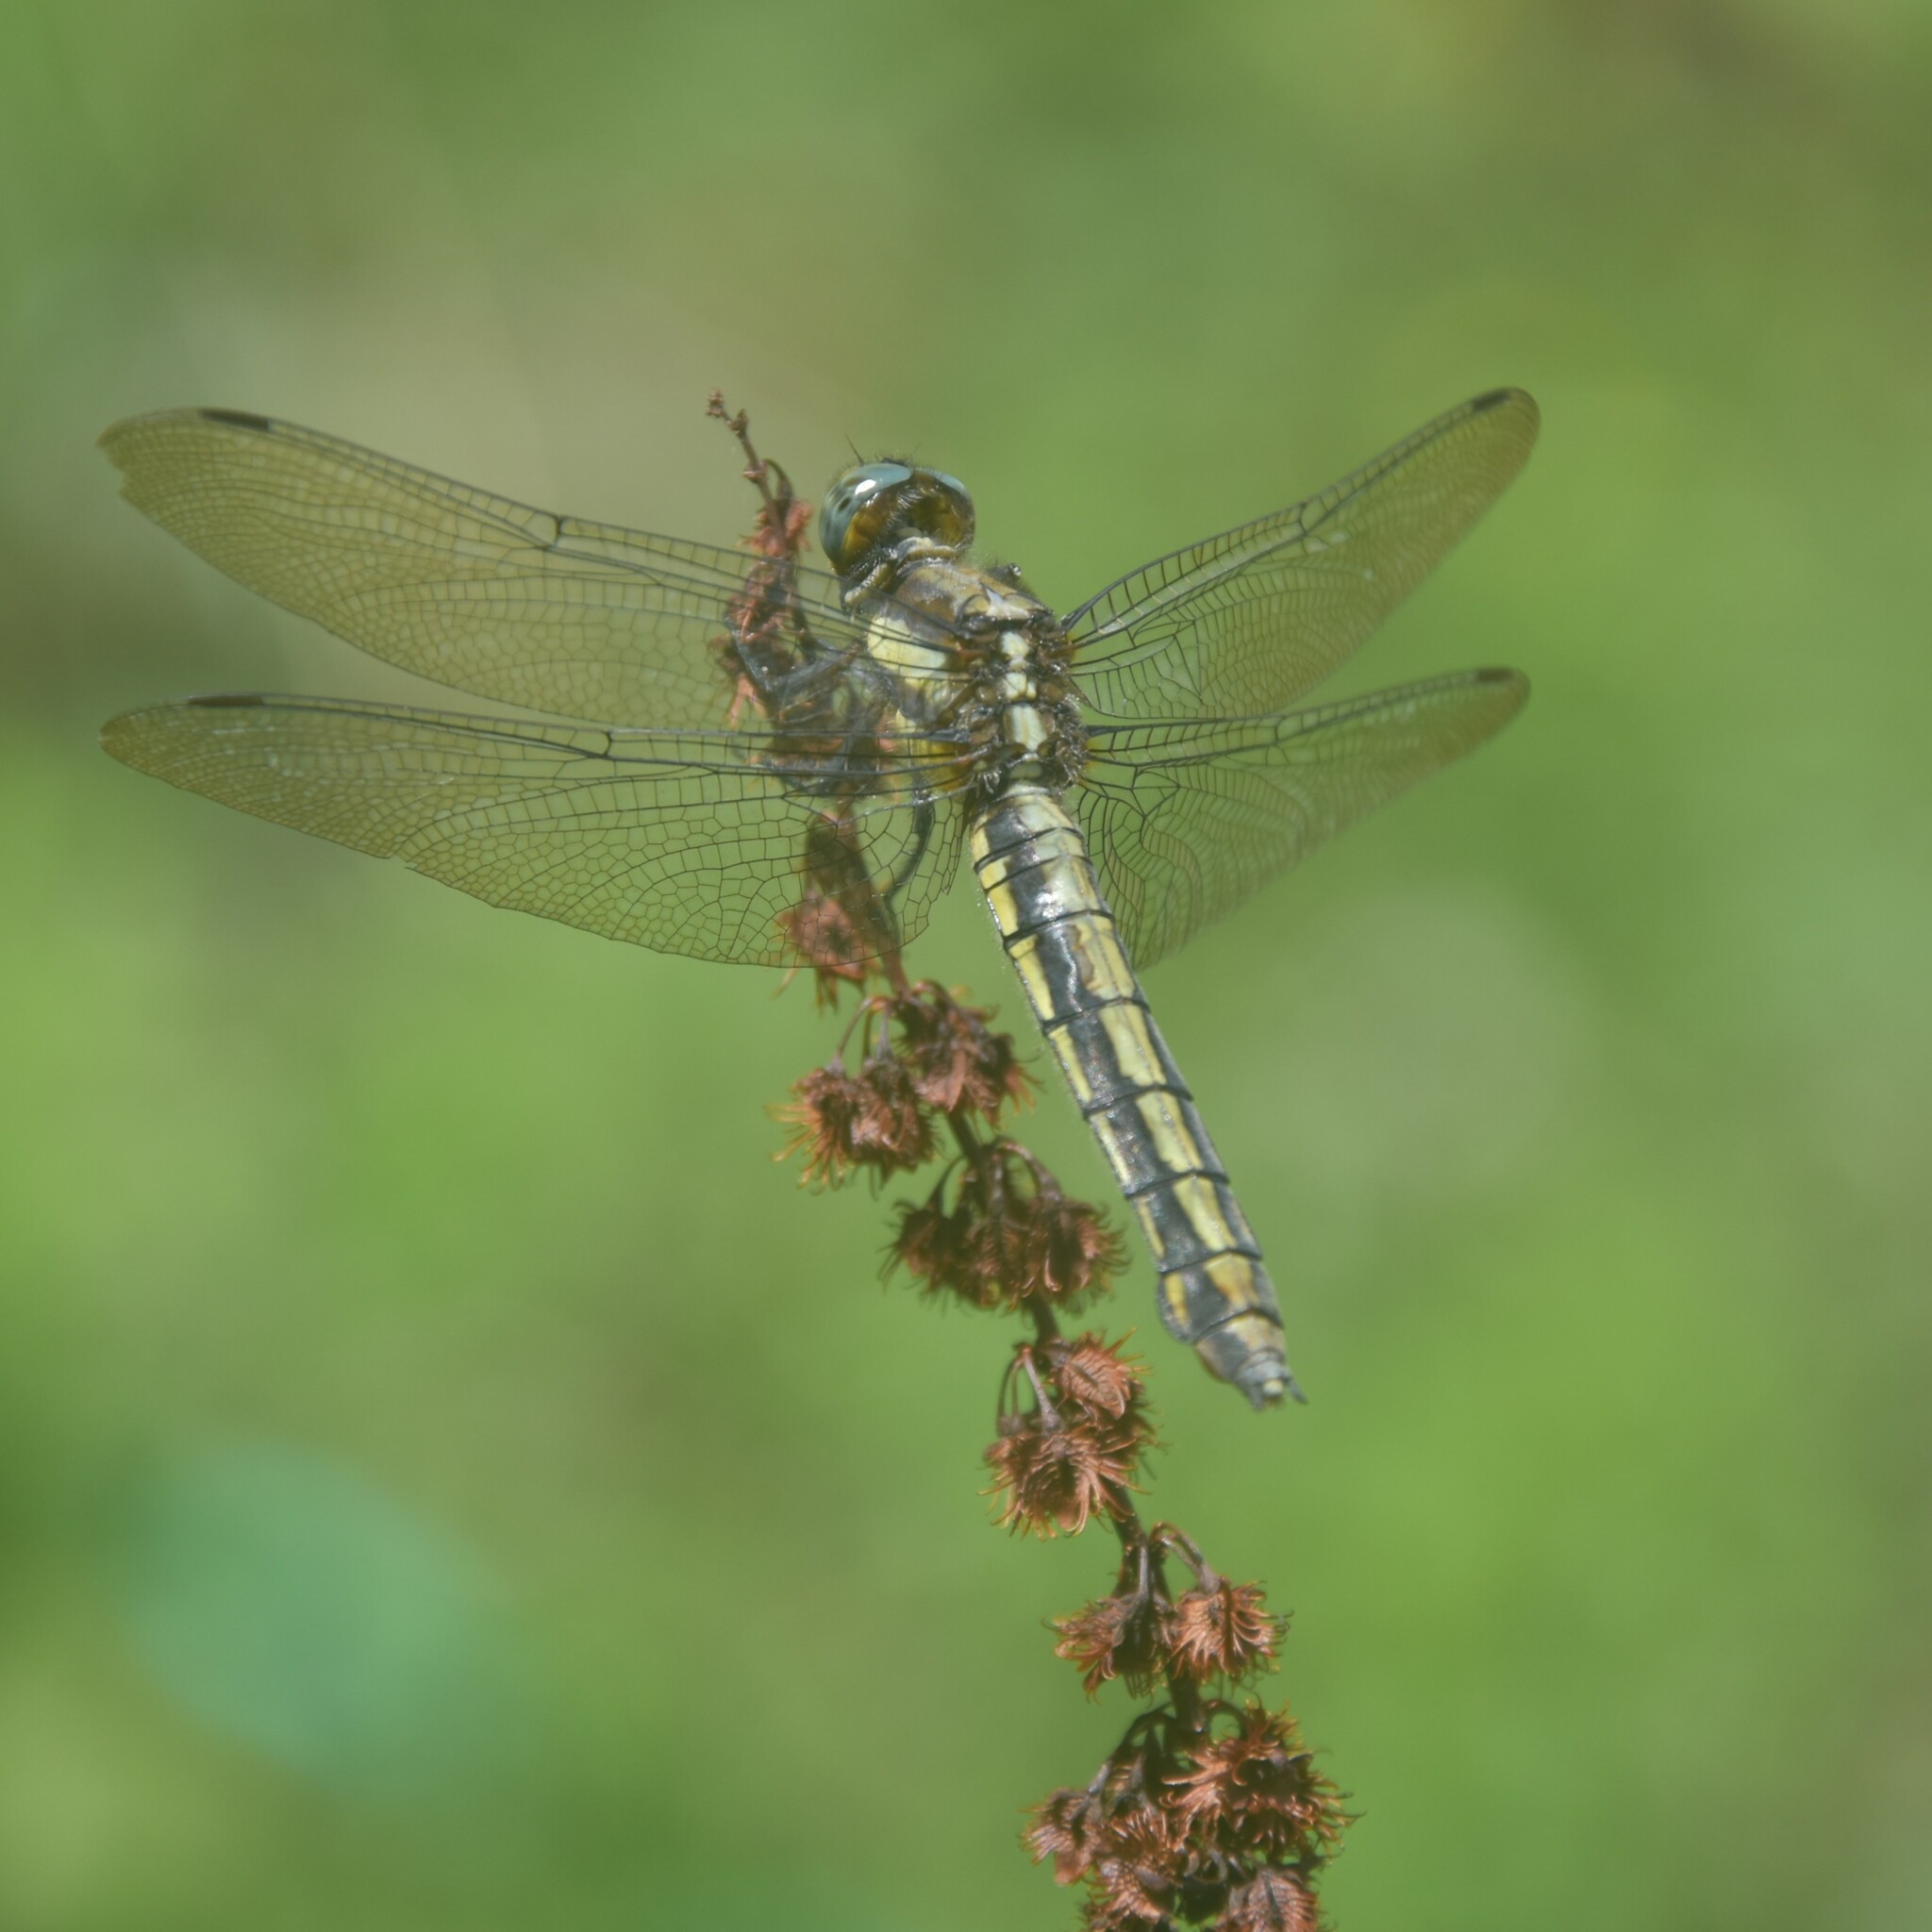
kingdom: Animalia
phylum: Arthropoda
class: Insecta
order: Odonata
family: Libellulidae
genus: Orthetrum
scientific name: Orthetrum internum
